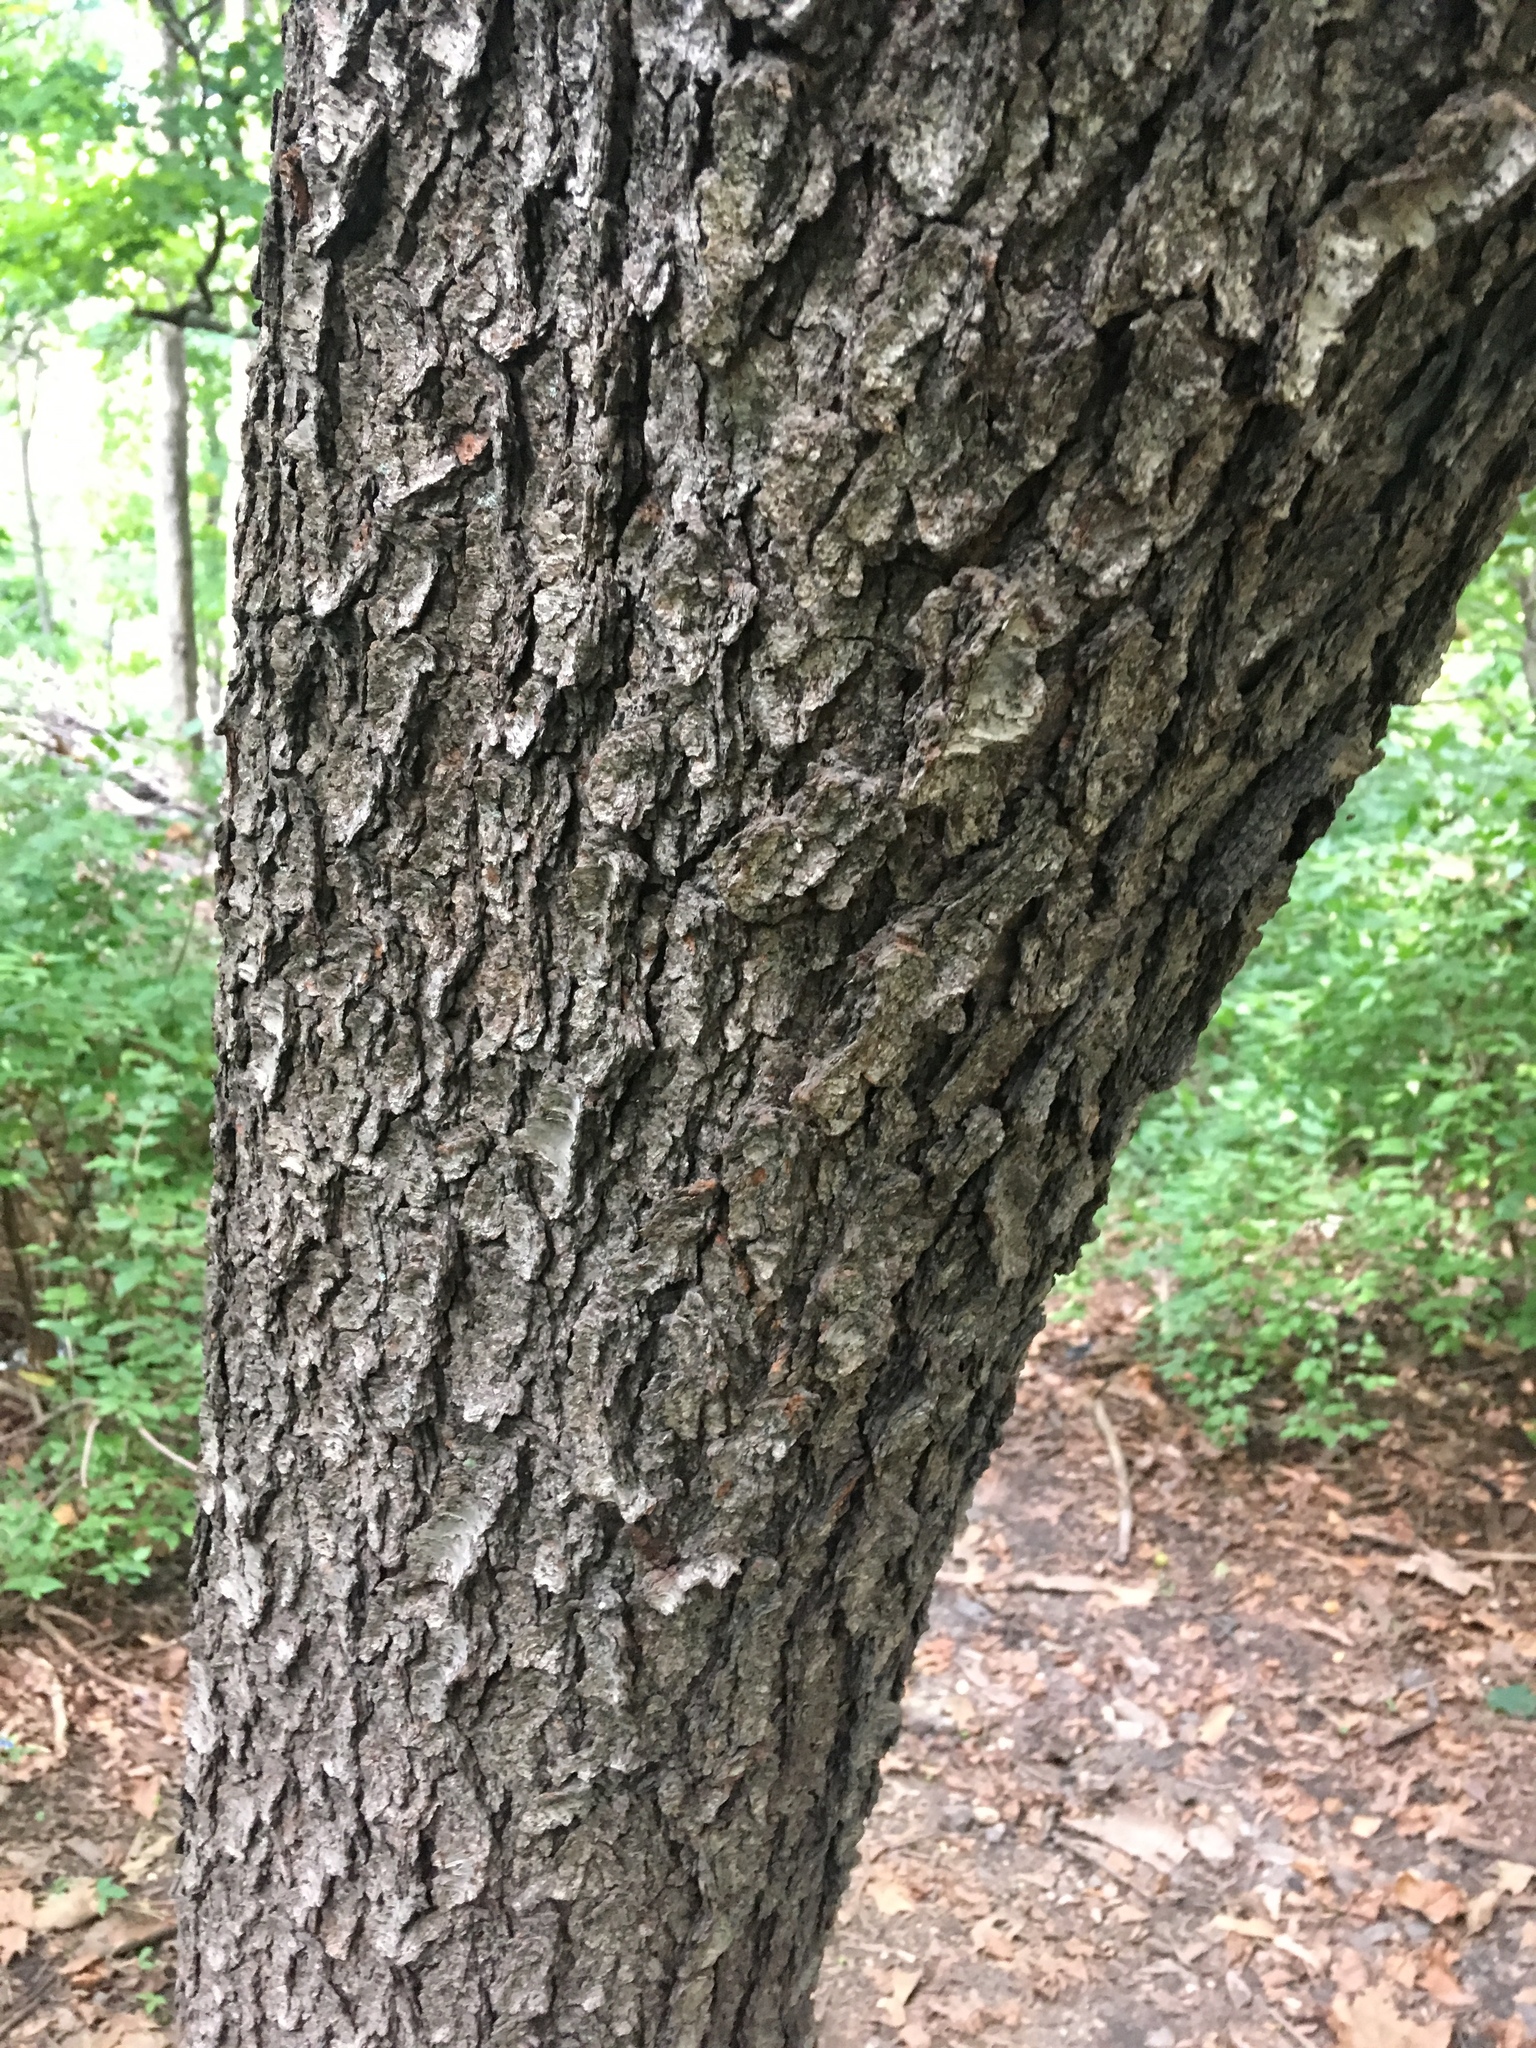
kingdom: Plantae
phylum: Tracheophyta
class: Magnoliopsida
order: Rosales
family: Rosaceae
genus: Prunus
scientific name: Prunus serotina
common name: Black cherry
